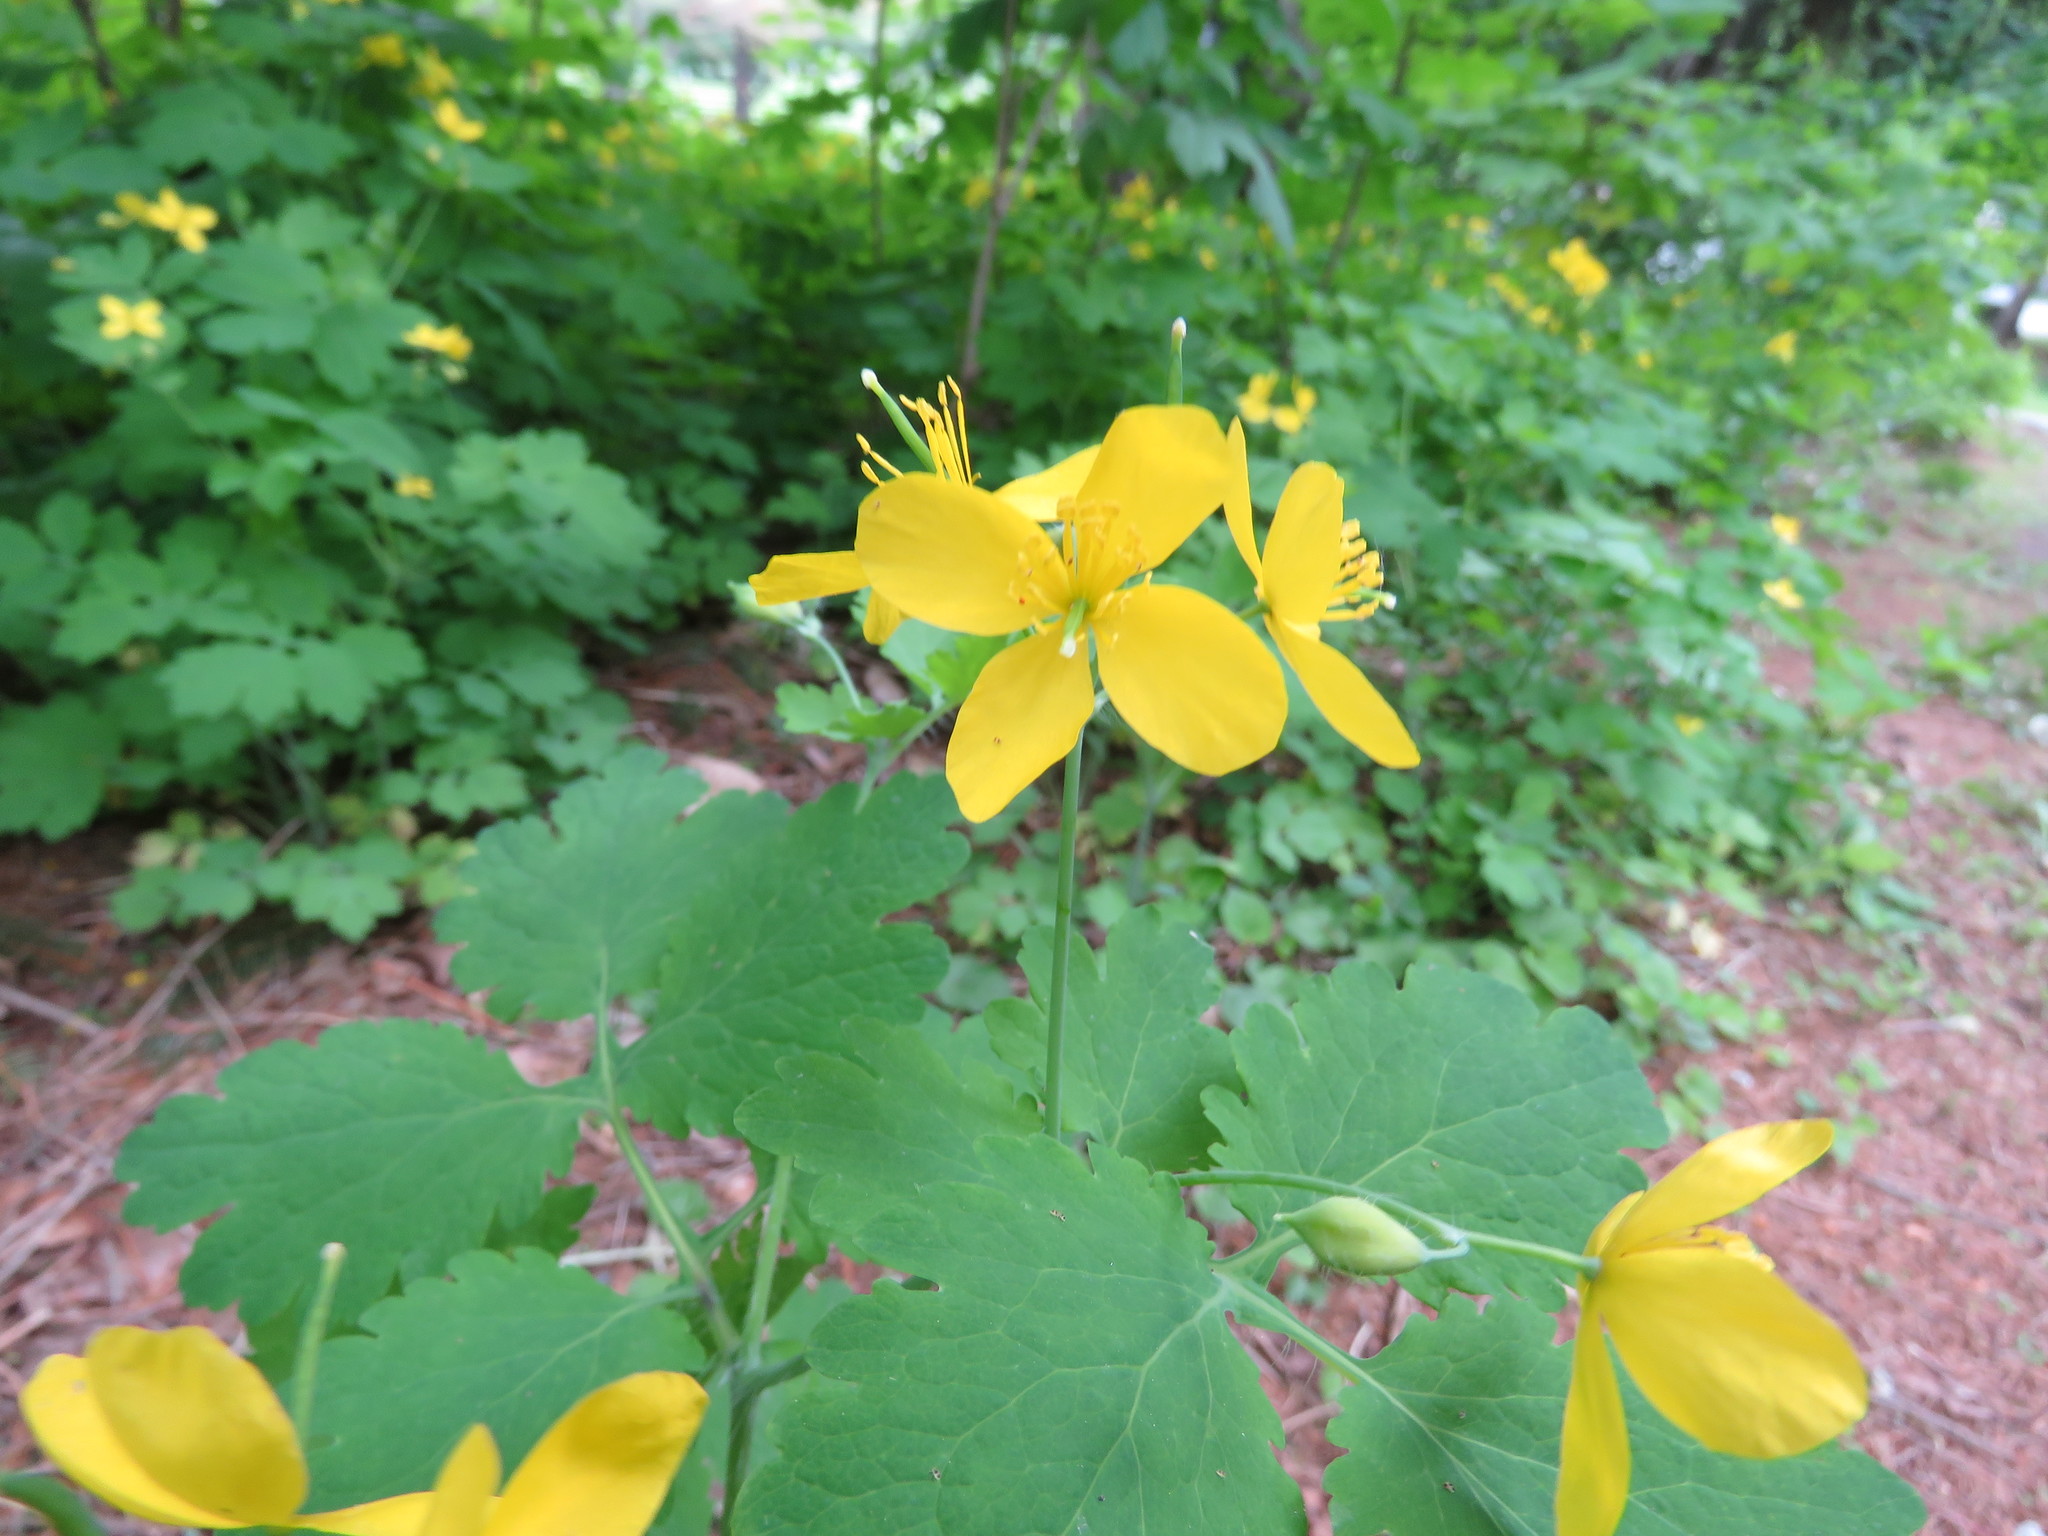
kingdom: Plantae
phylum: Tracheophyta
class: Magnoliopsida
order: Ranunculales
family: Papaveraceae
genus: Chelidonium
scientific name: Chelidonium majus
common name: Greater celandine
